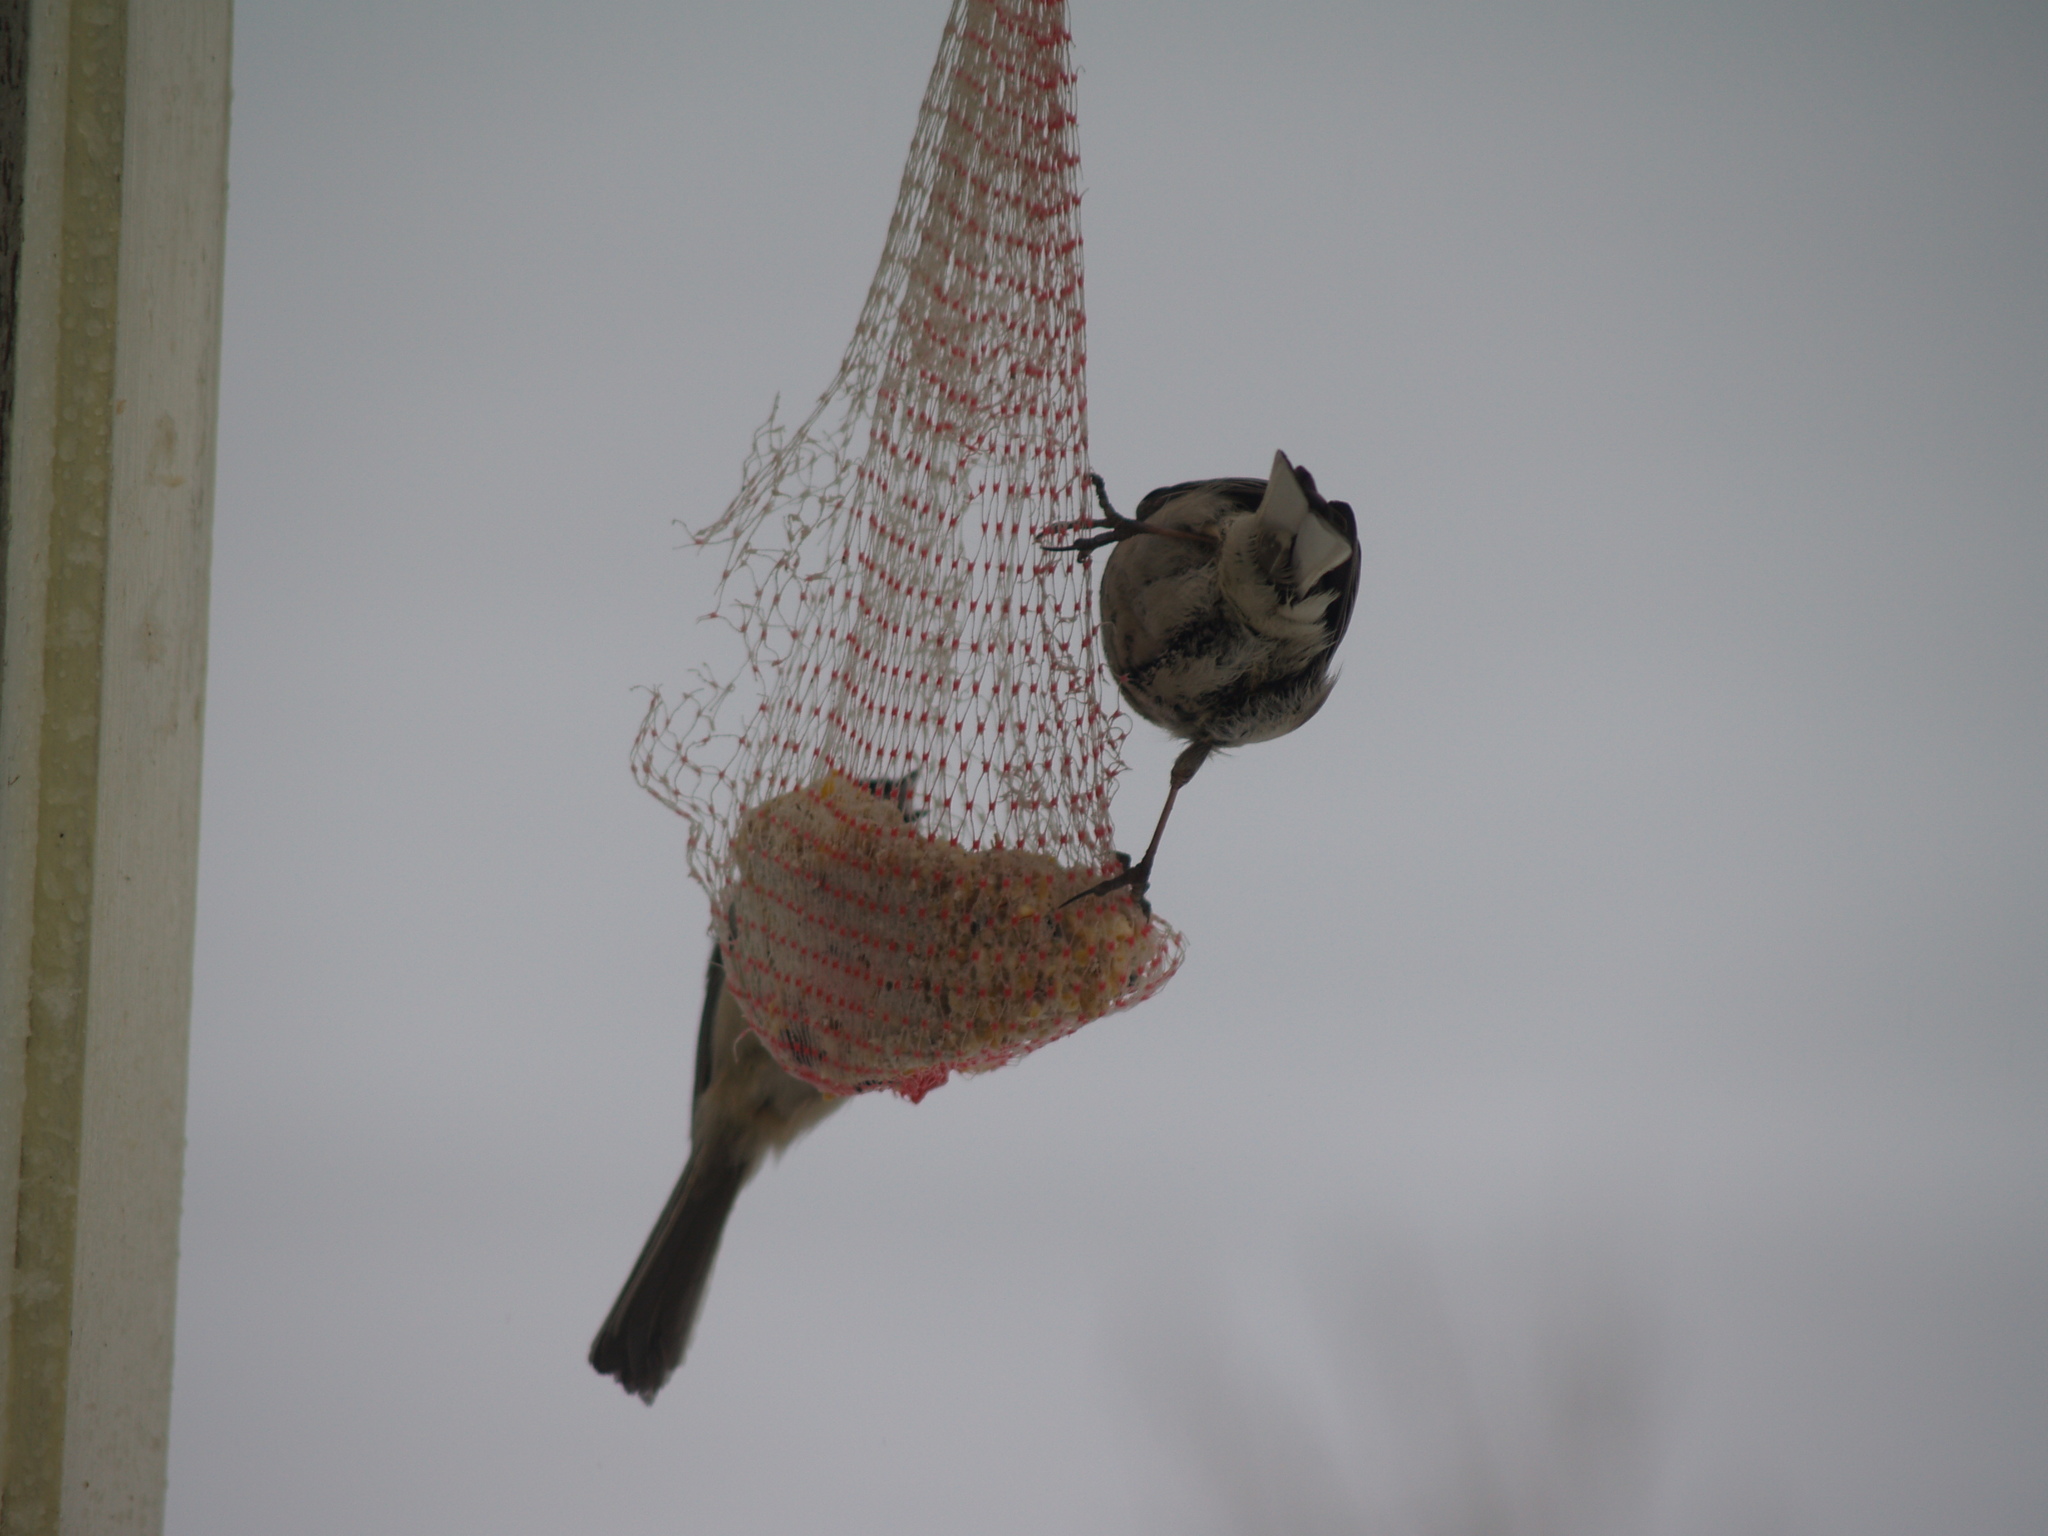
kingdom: Animalia
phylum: Chordata
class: Aves
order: Passeriformes
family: Passerellidae
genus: Junco
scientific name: Junco hyemalis
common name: Dark-eyed junco
